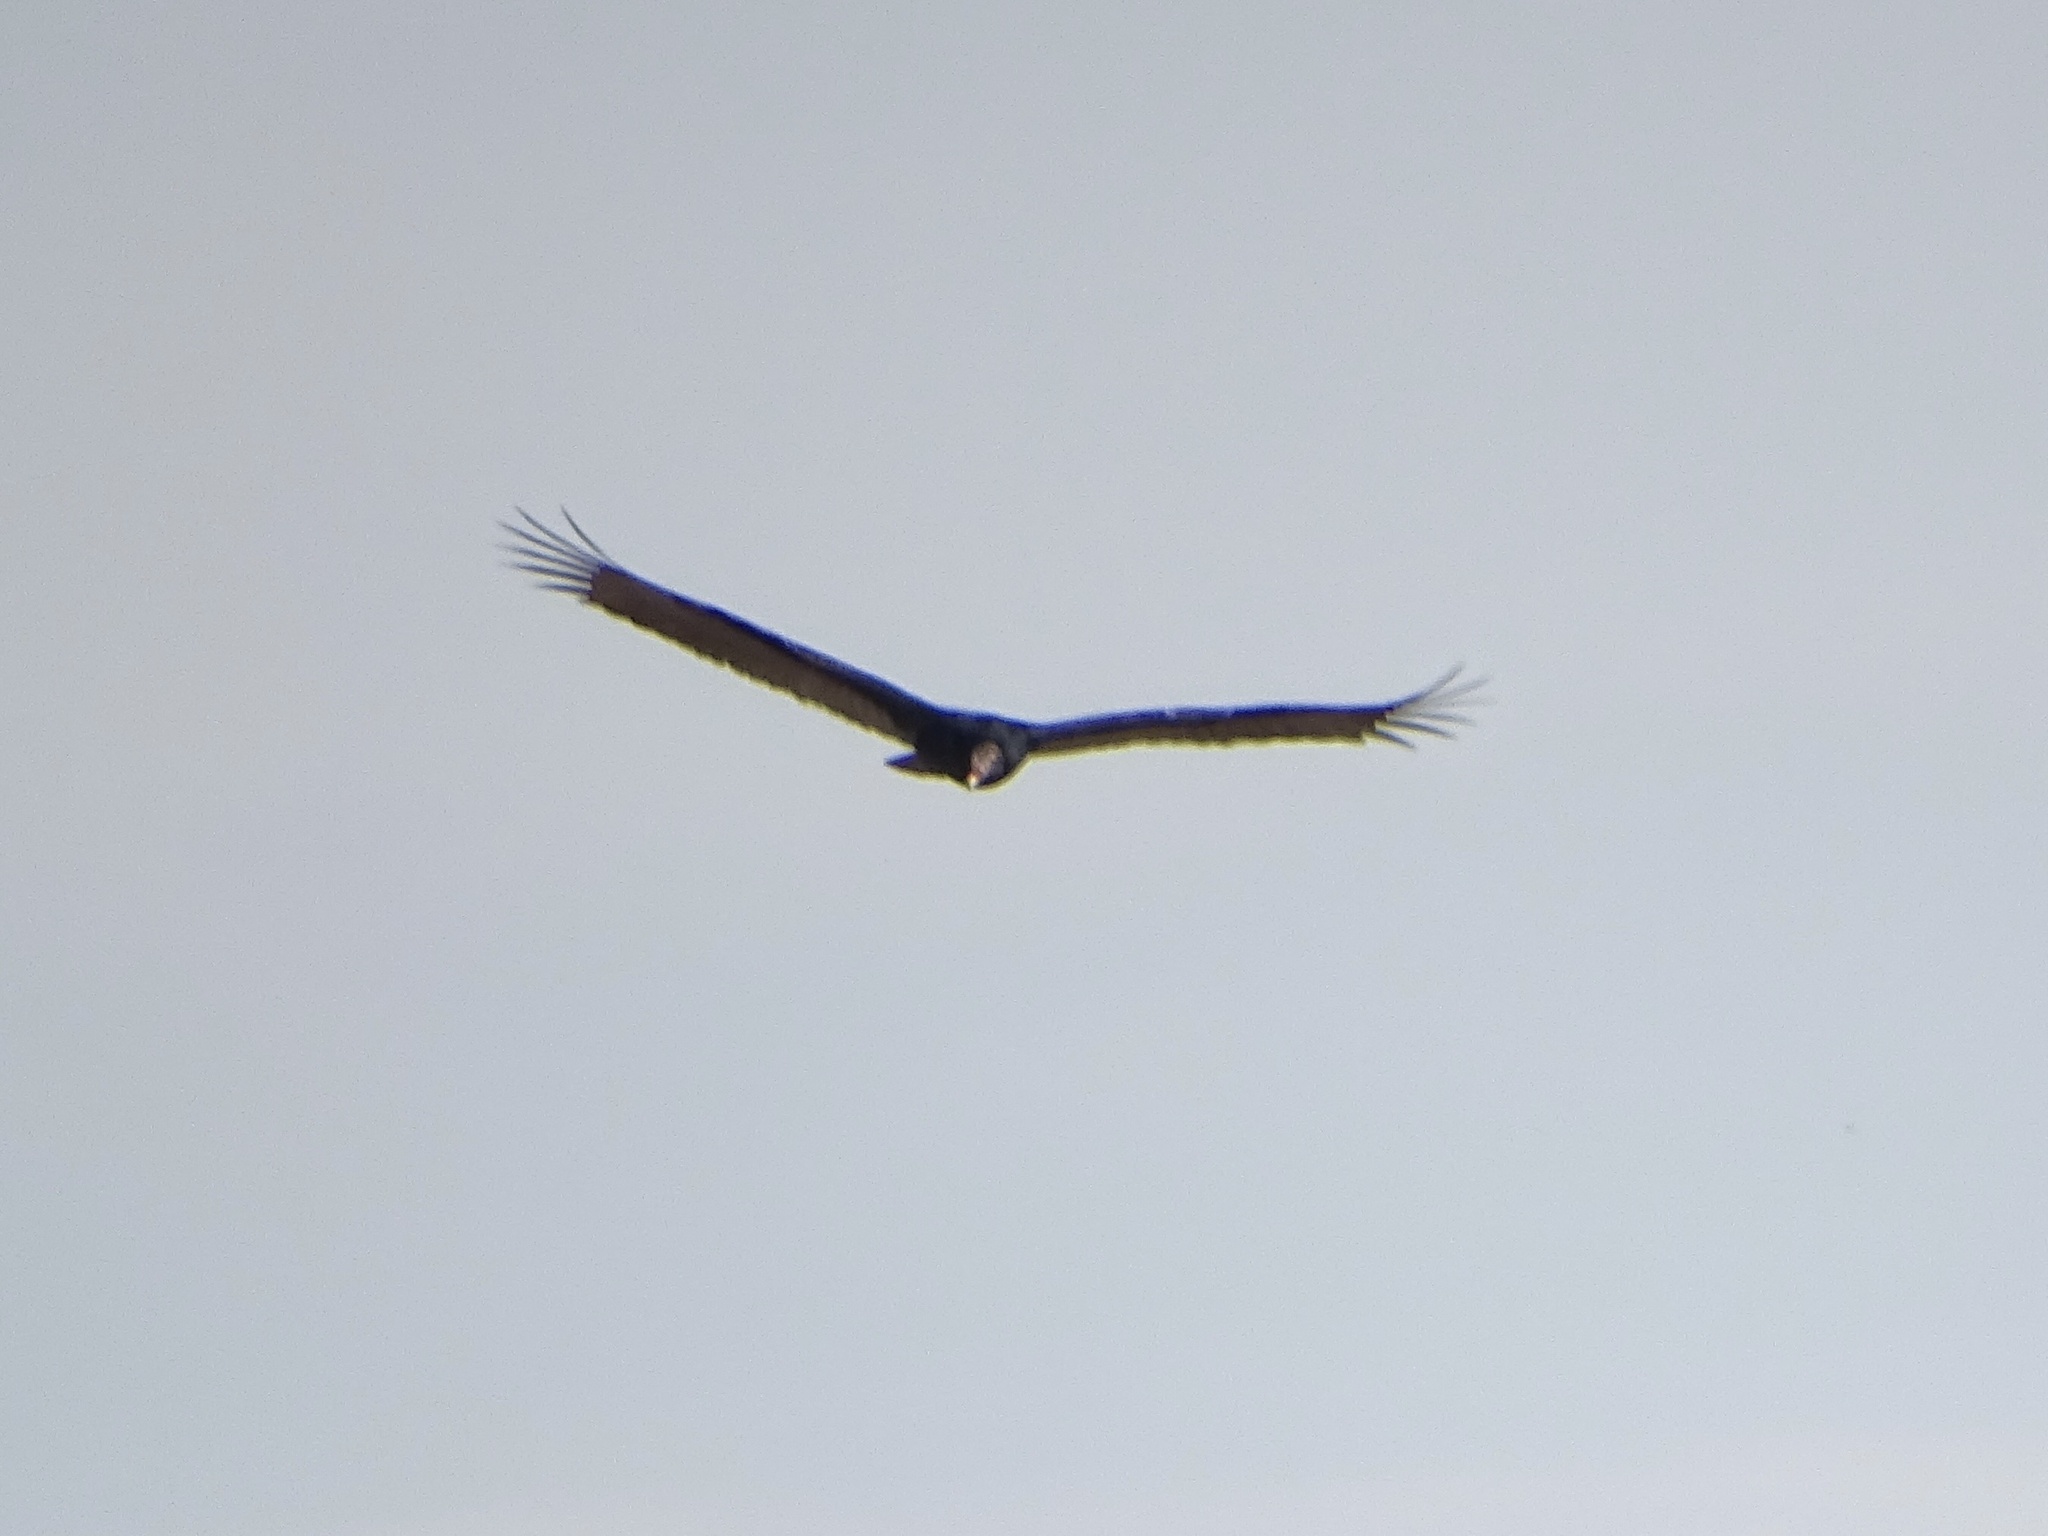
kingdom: Animalia
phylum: Chordata
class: Aves
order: Accipitriformes
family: Cathartidae
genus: Cathartes
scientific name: Cathartes aura
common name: Turkey vulture
